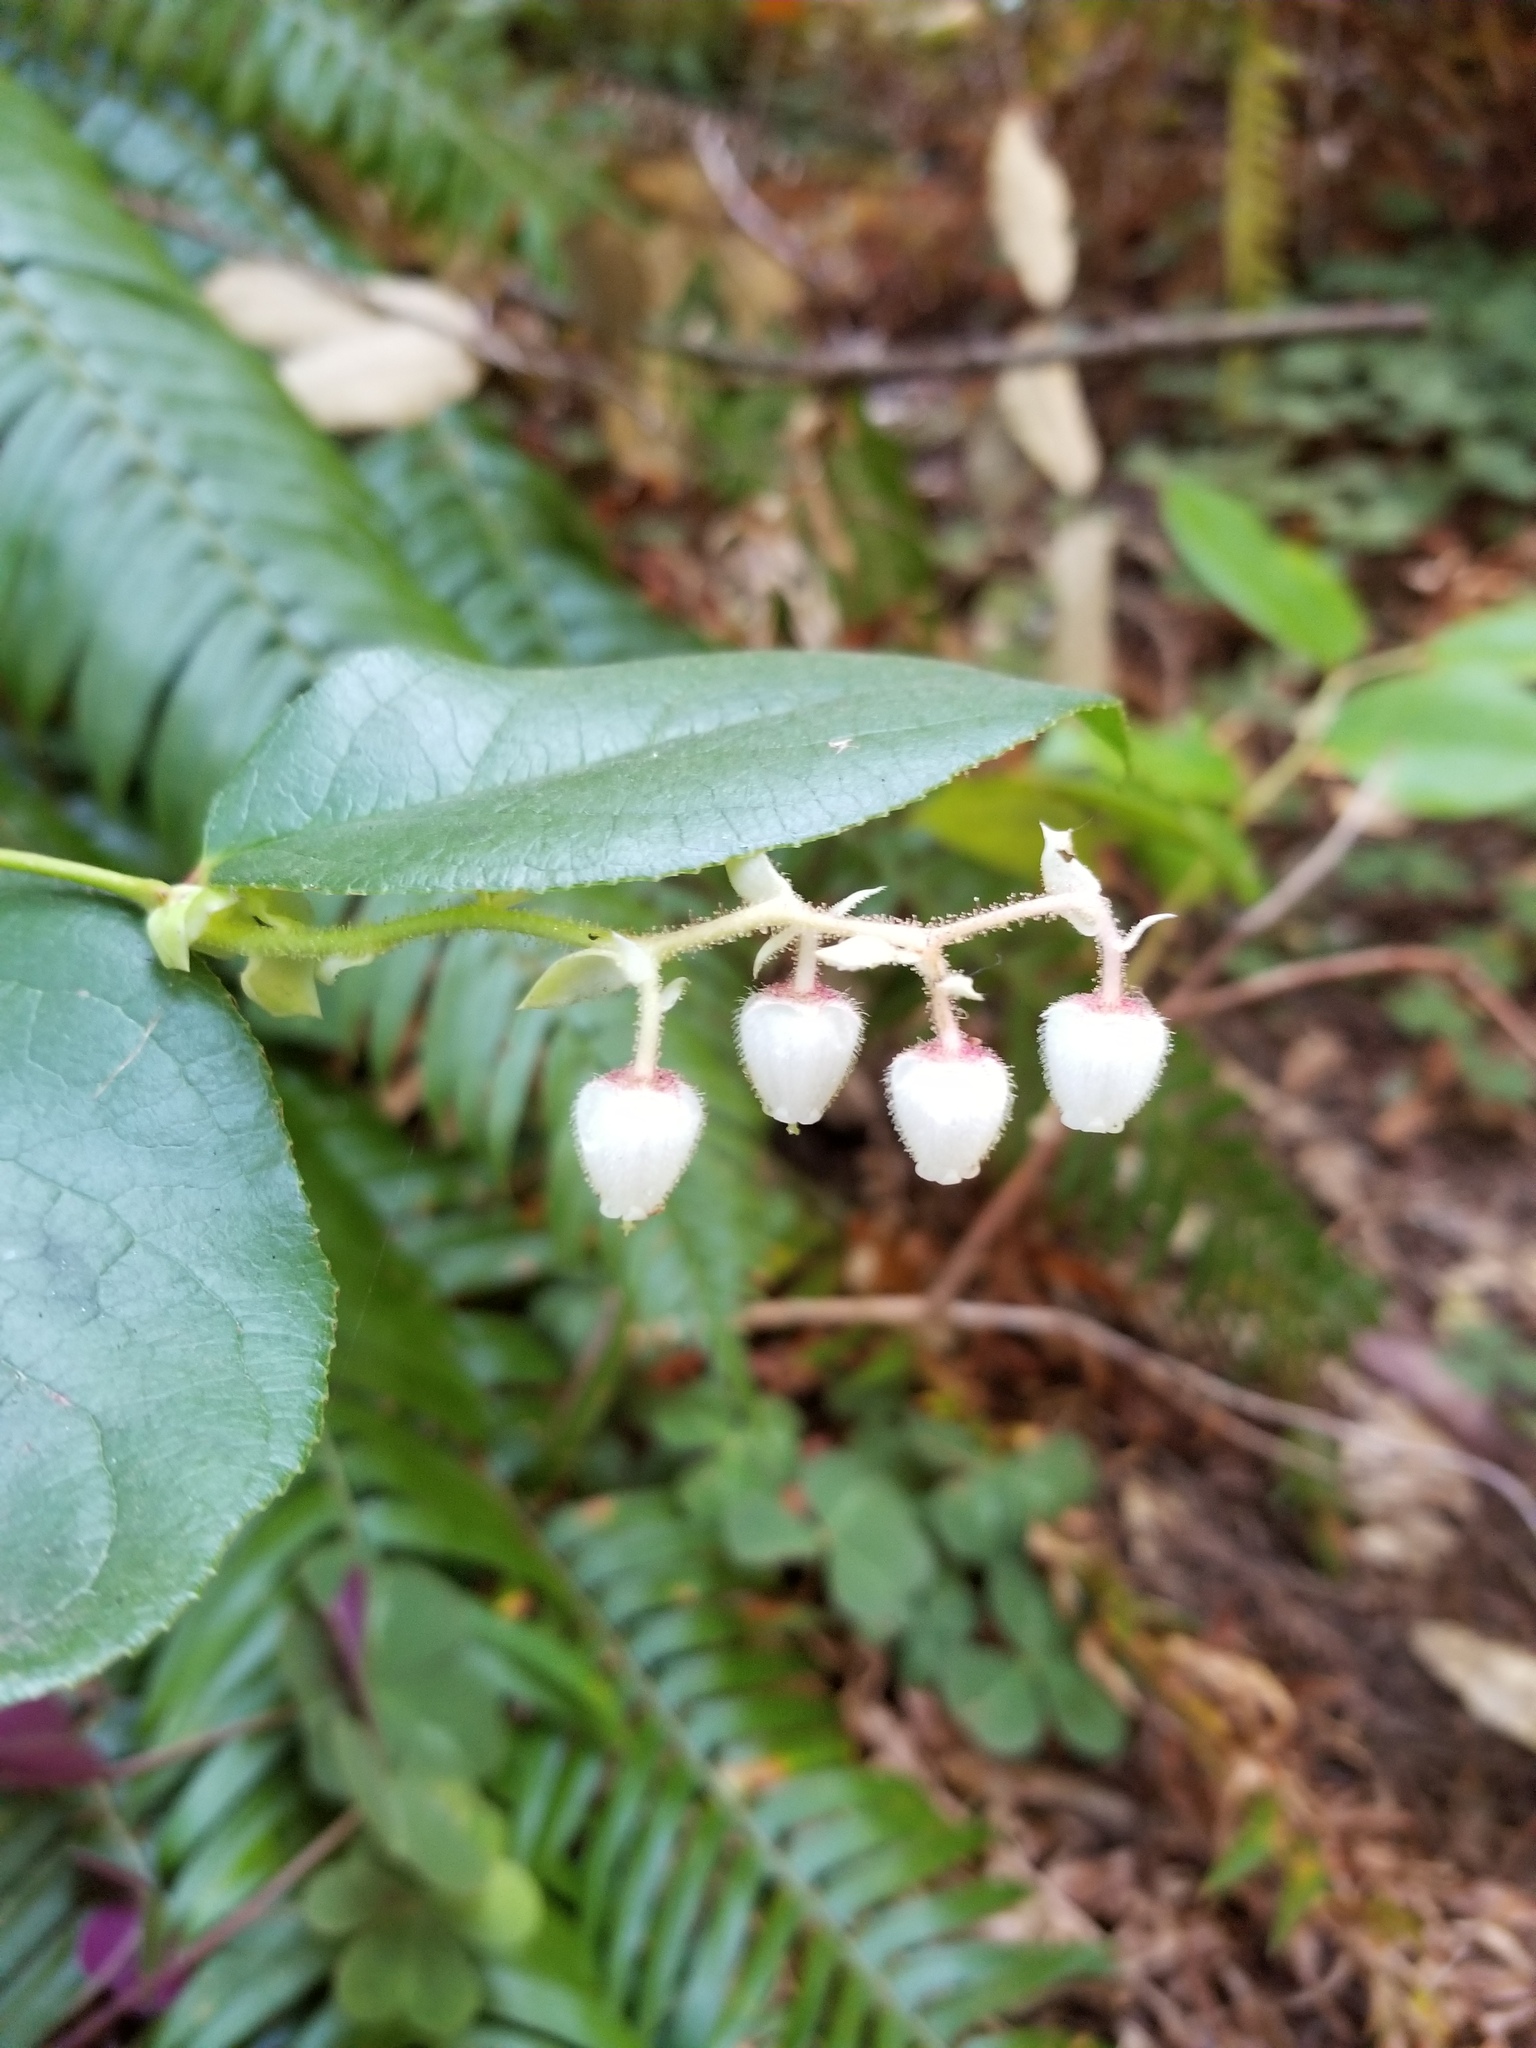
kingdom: Plantae
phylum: Tracheophyta
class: Magnoliopsida
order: Ericales
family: Ericaceae
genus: Gaultheria
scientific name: Gaultheria shallon
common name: Shallon
